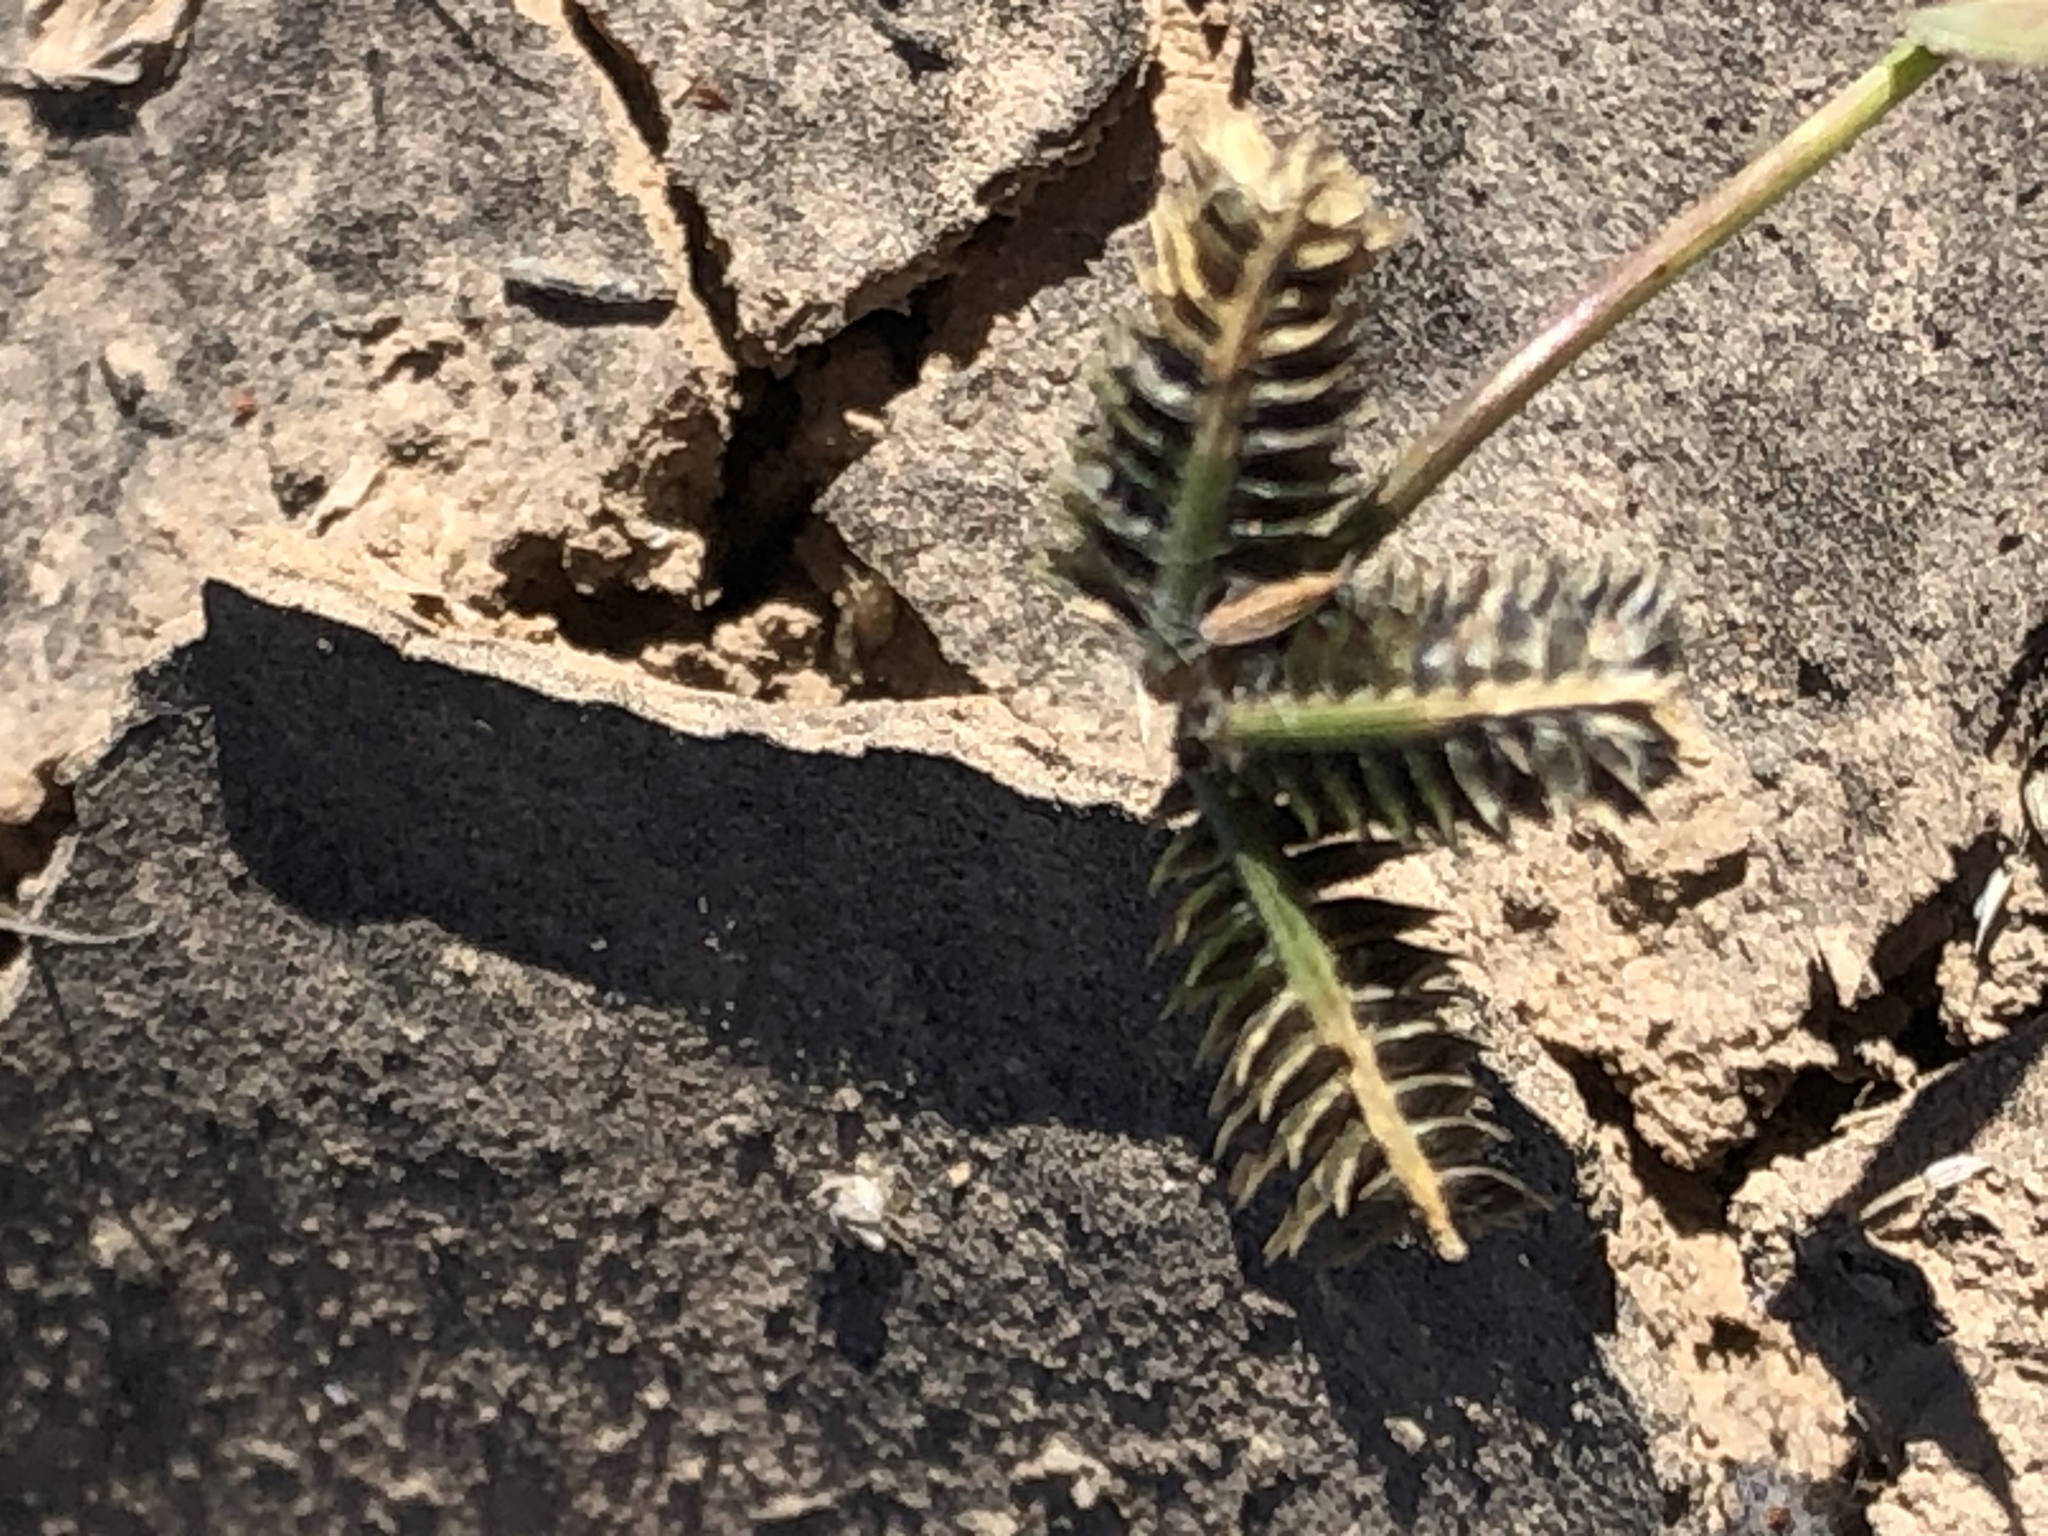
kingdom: Plantae
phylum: Tracheophyta
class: Liliopsida
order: Poales
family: Poaceae
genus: Dactyloctenium
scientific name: Dactyloctenium aegyptium
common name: Egyptian grass
